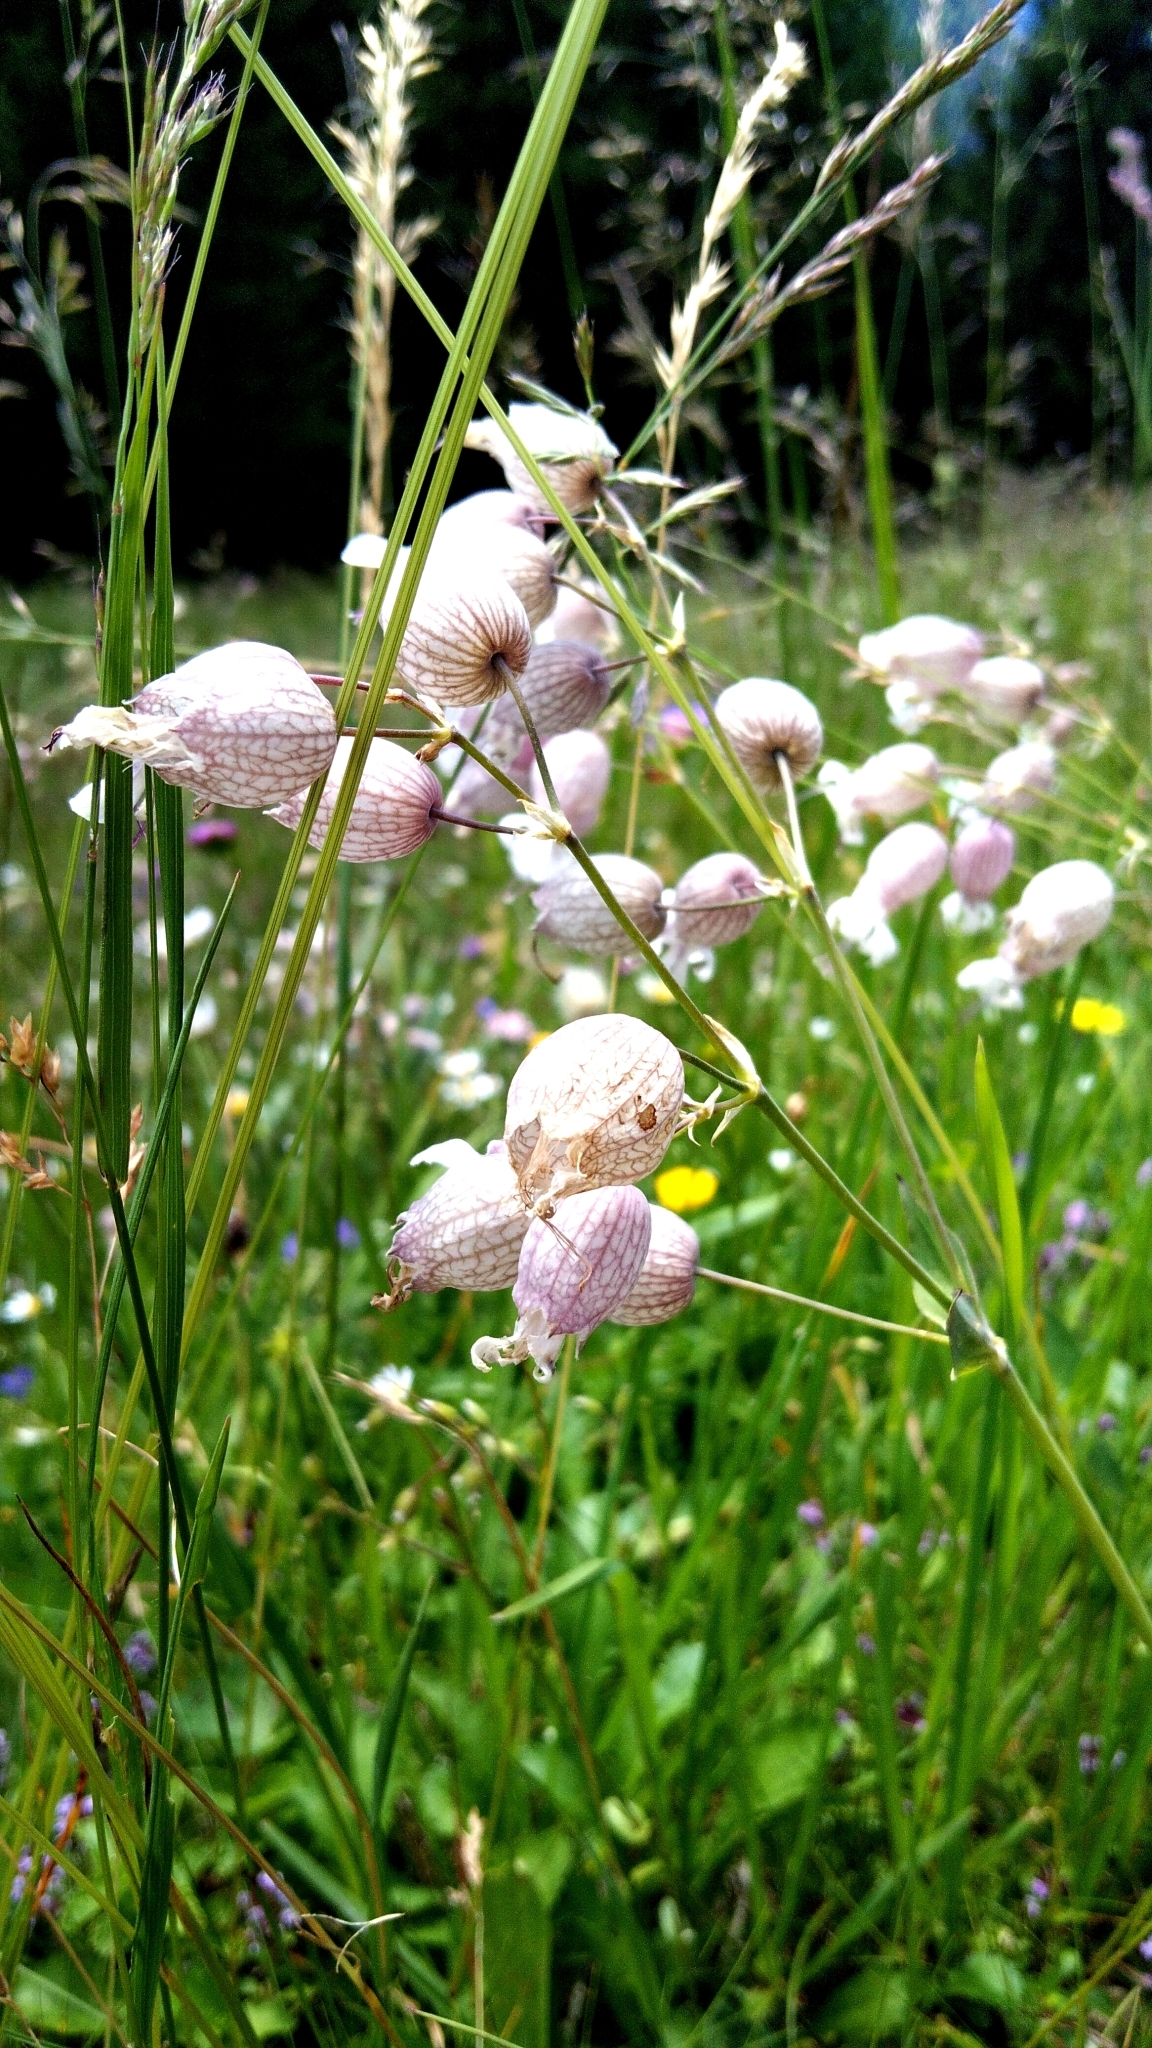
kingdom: Plantae
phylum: Tracheophyta
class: Magnoliopsida
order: Caryophyllales
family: Caryophyllaceae
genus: Silene
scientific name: Silene vulgaris
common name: Bladder campion
